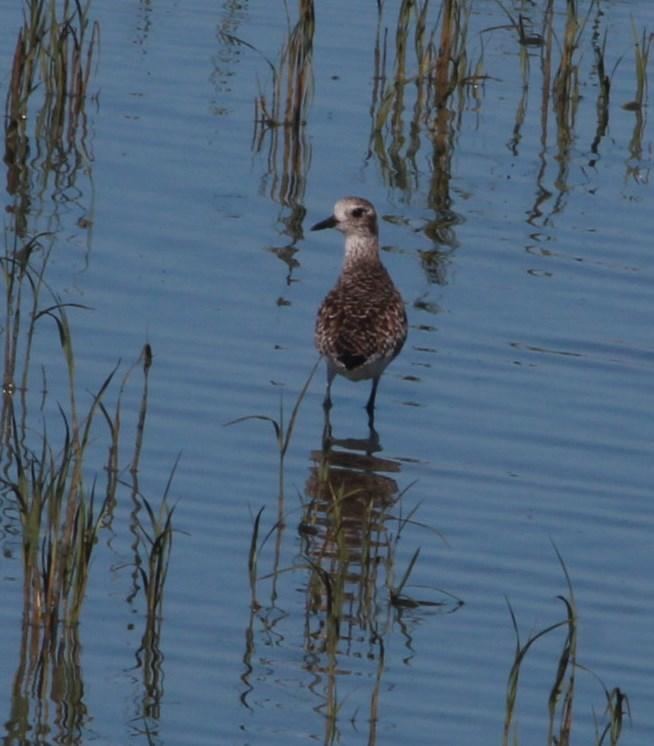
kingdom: Animalia
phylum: Chordata
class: Aves
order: Charadriiformes
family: Charadriidae
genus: Pluvialis
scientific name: Pluvialis squatarola
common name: Grey plover
